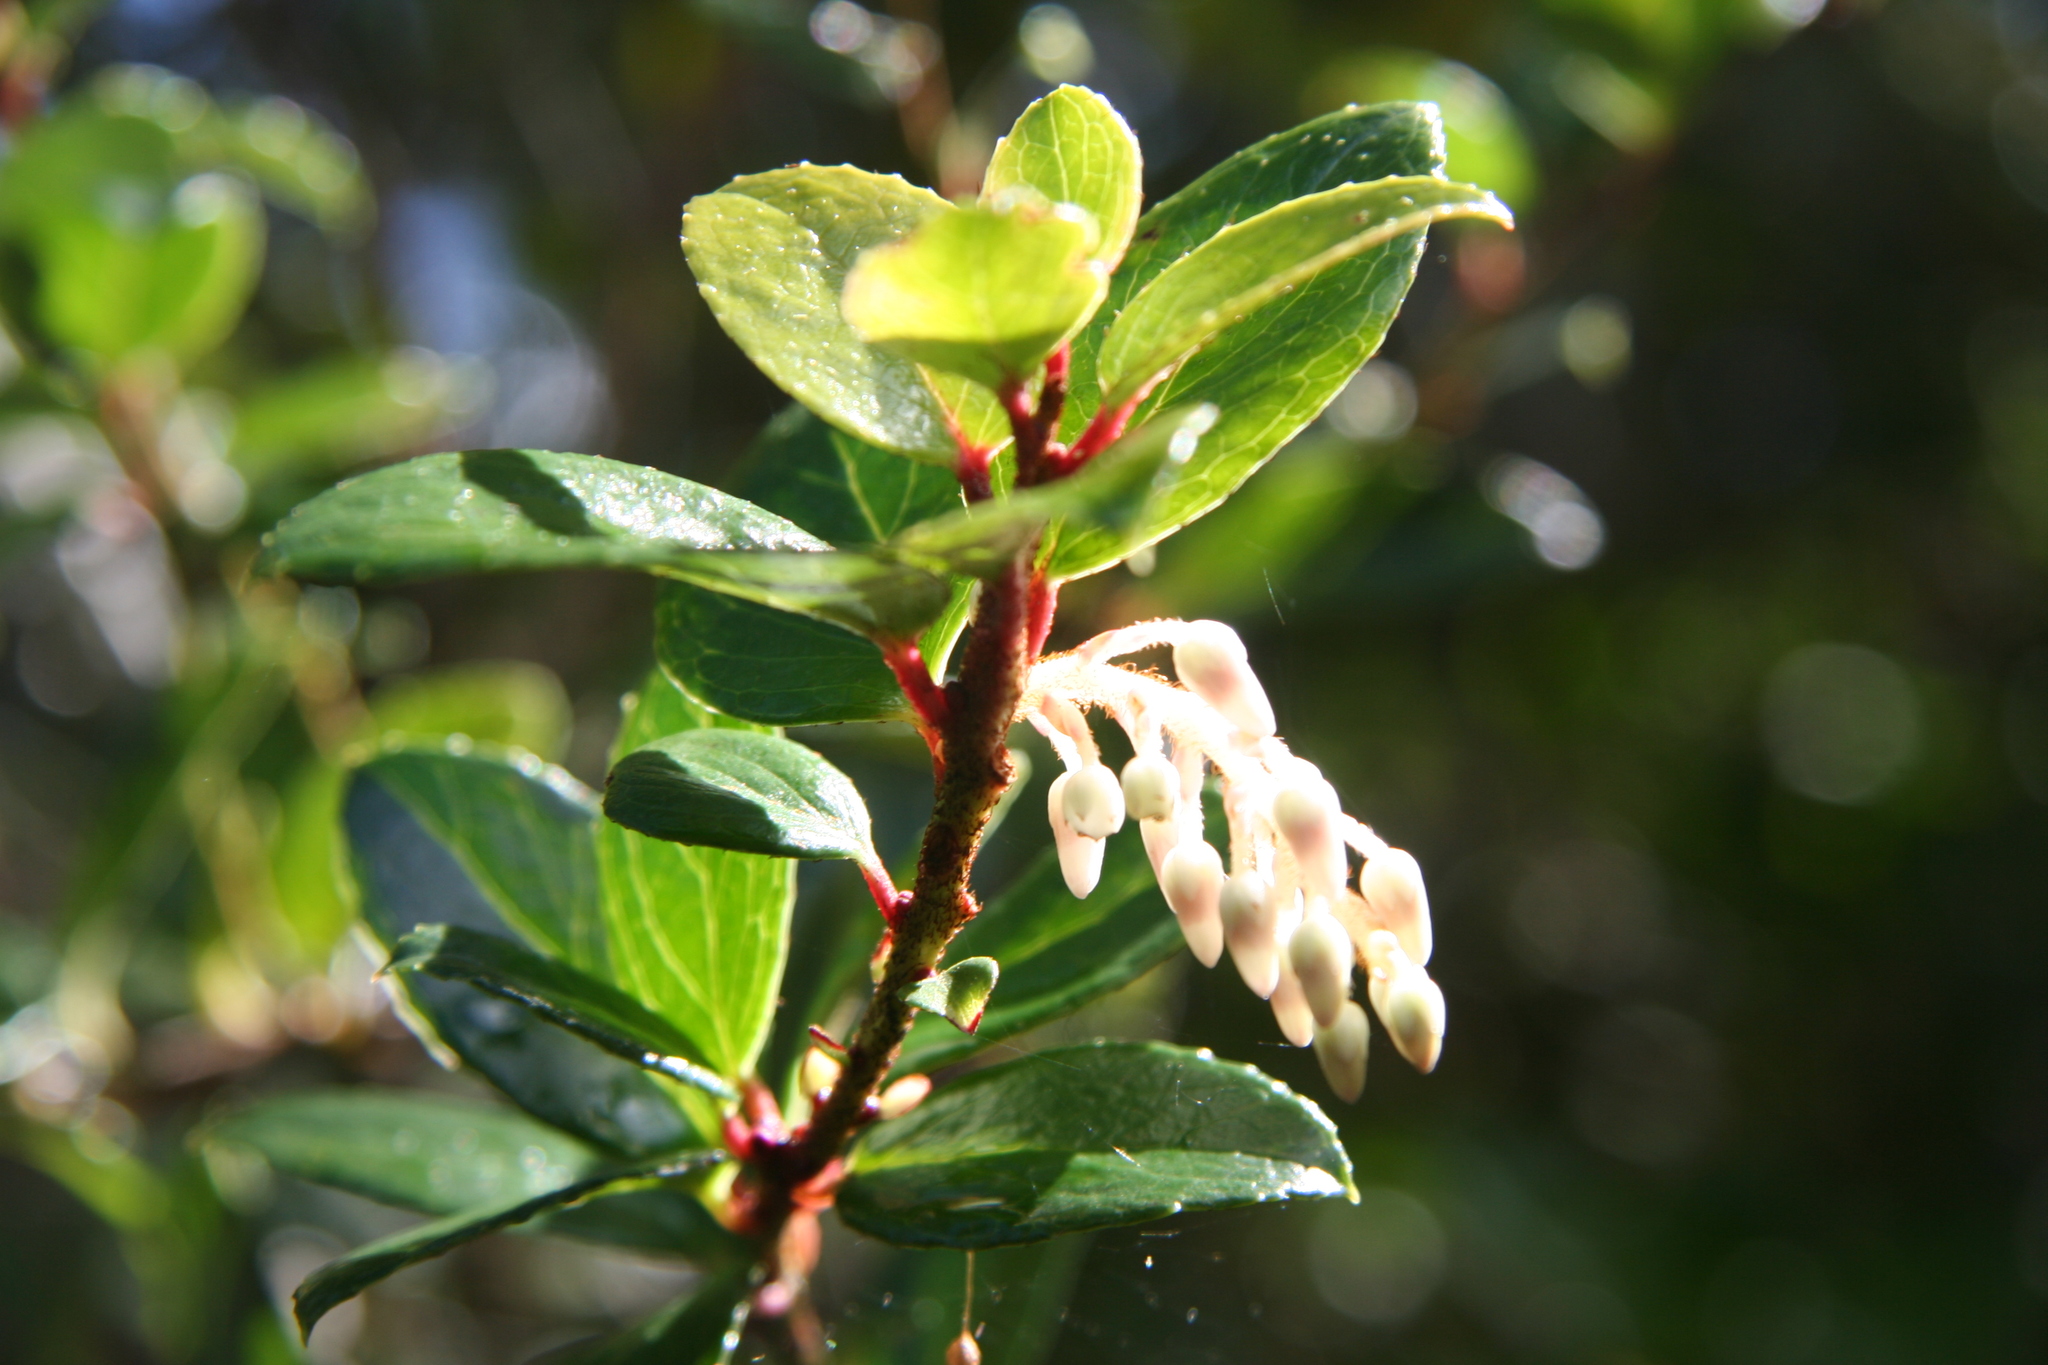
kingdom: Plantae
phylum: Tracheophyta
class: Magnoliopsida
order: Ericales
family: Ericaceae
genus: Gaultheria
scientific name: Gaultheria insana
